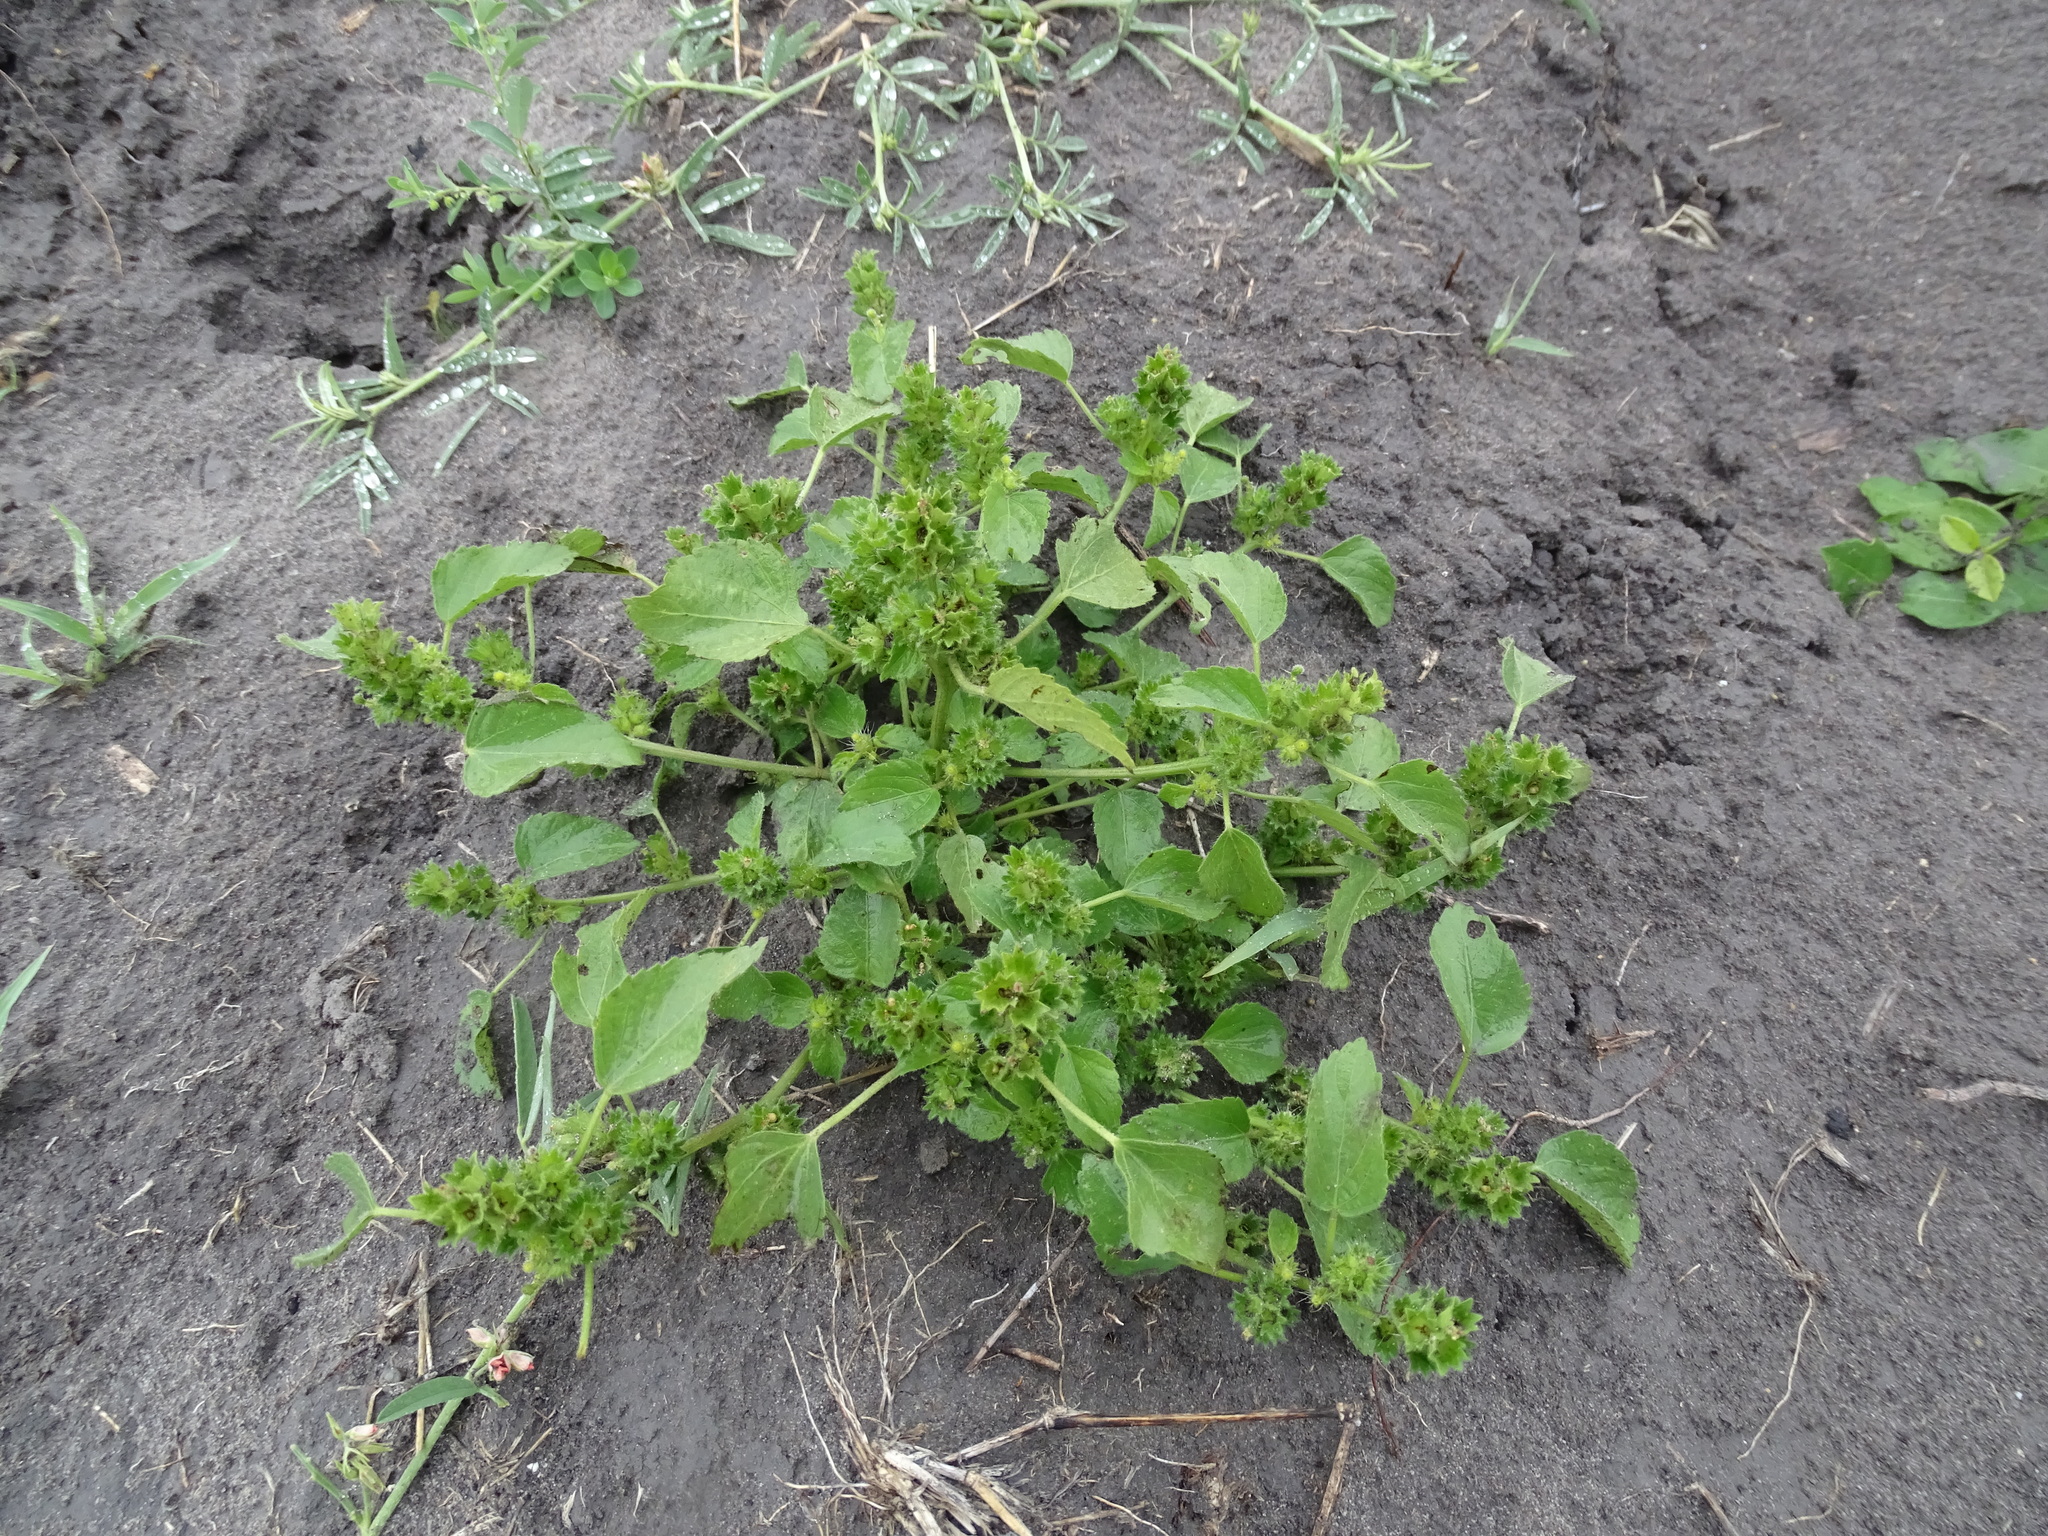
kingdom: Plantae
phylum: Tracheophyta
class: Magnoliopsida
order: Malpighiales
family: Euphorbiaceae
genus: Acalypha
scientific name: Acalypha poiretii
